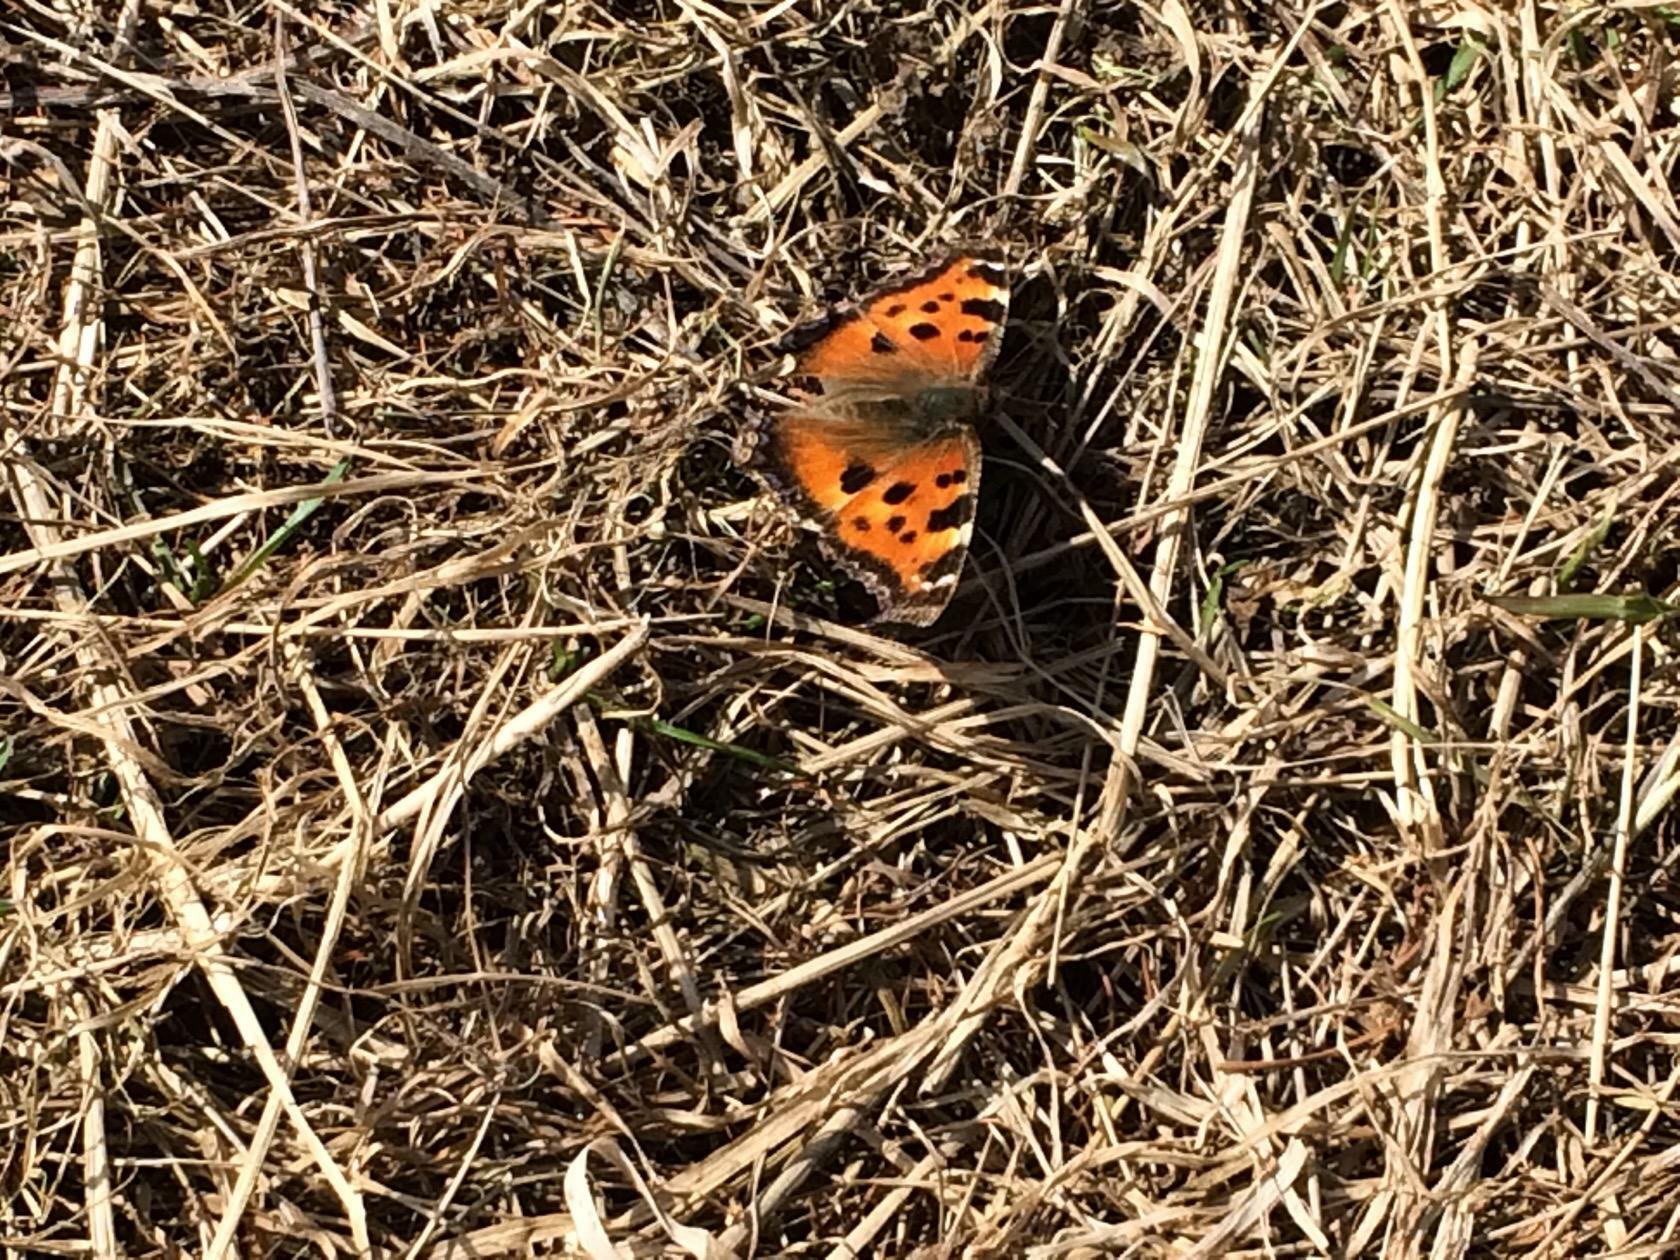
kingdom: Animalia
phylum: Arthropoda
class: Insecta
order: Lepidoptera
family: Nymphalidae
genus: Nymphalis
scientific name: Nymphalis xanthomelas
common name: Scarce tortoiseshell
